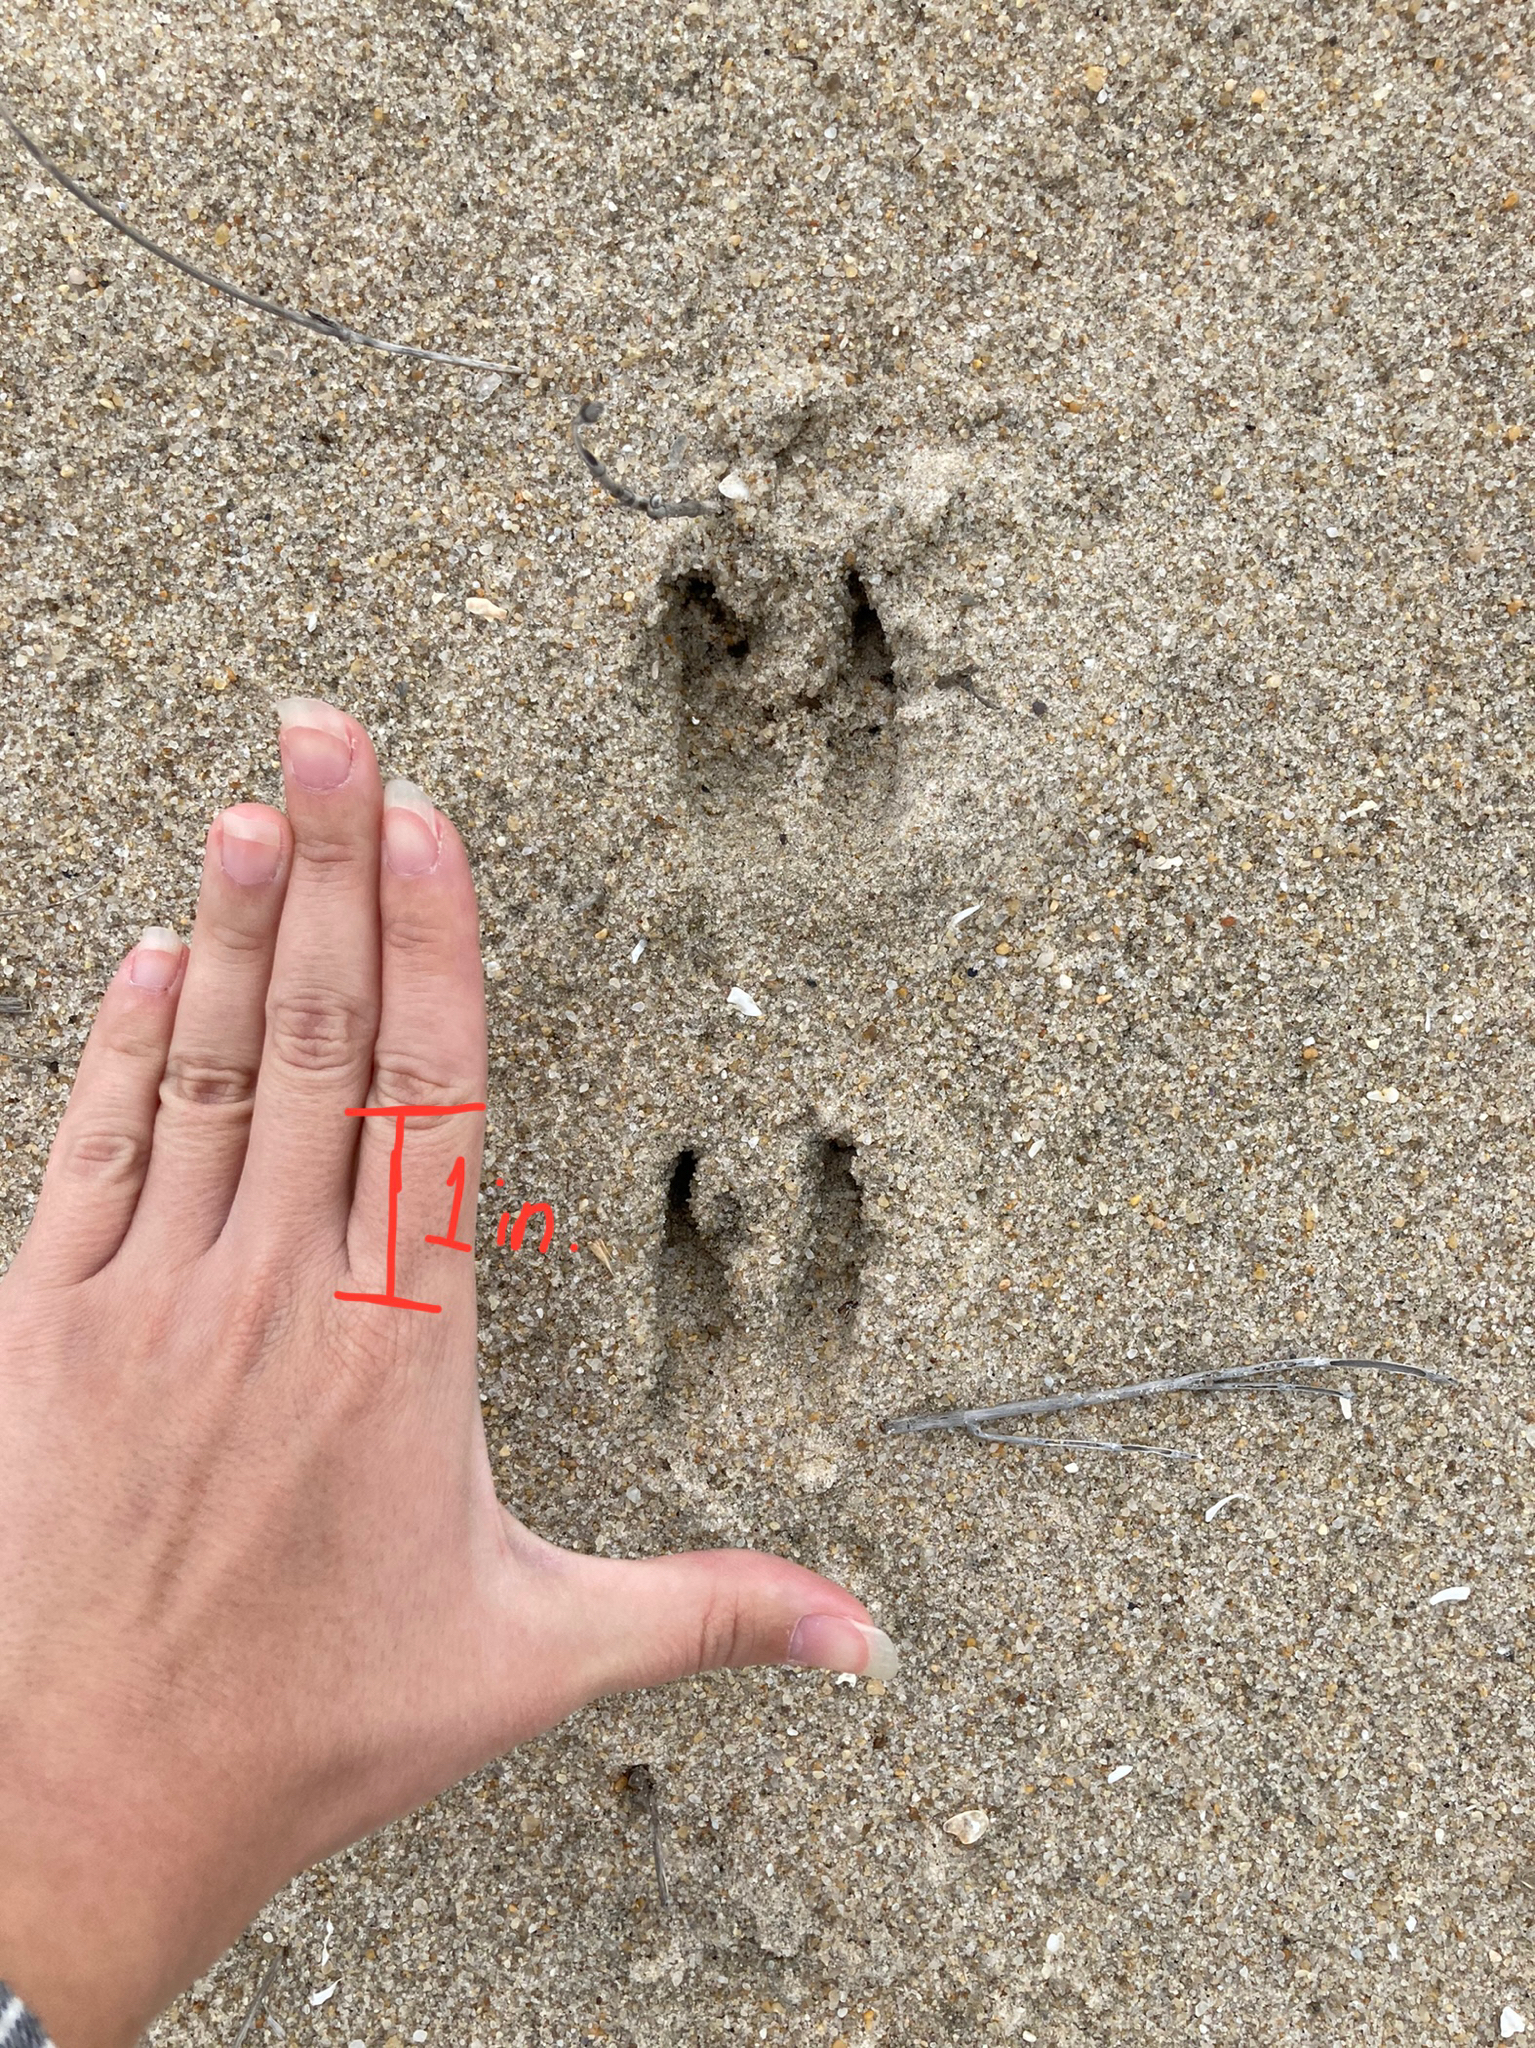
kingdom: Animalia
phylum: Chordata
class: Mammalia
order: Artiodactyla
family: Cervidae
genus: Cervus
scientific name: Cervus nippon
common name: Sika deer
